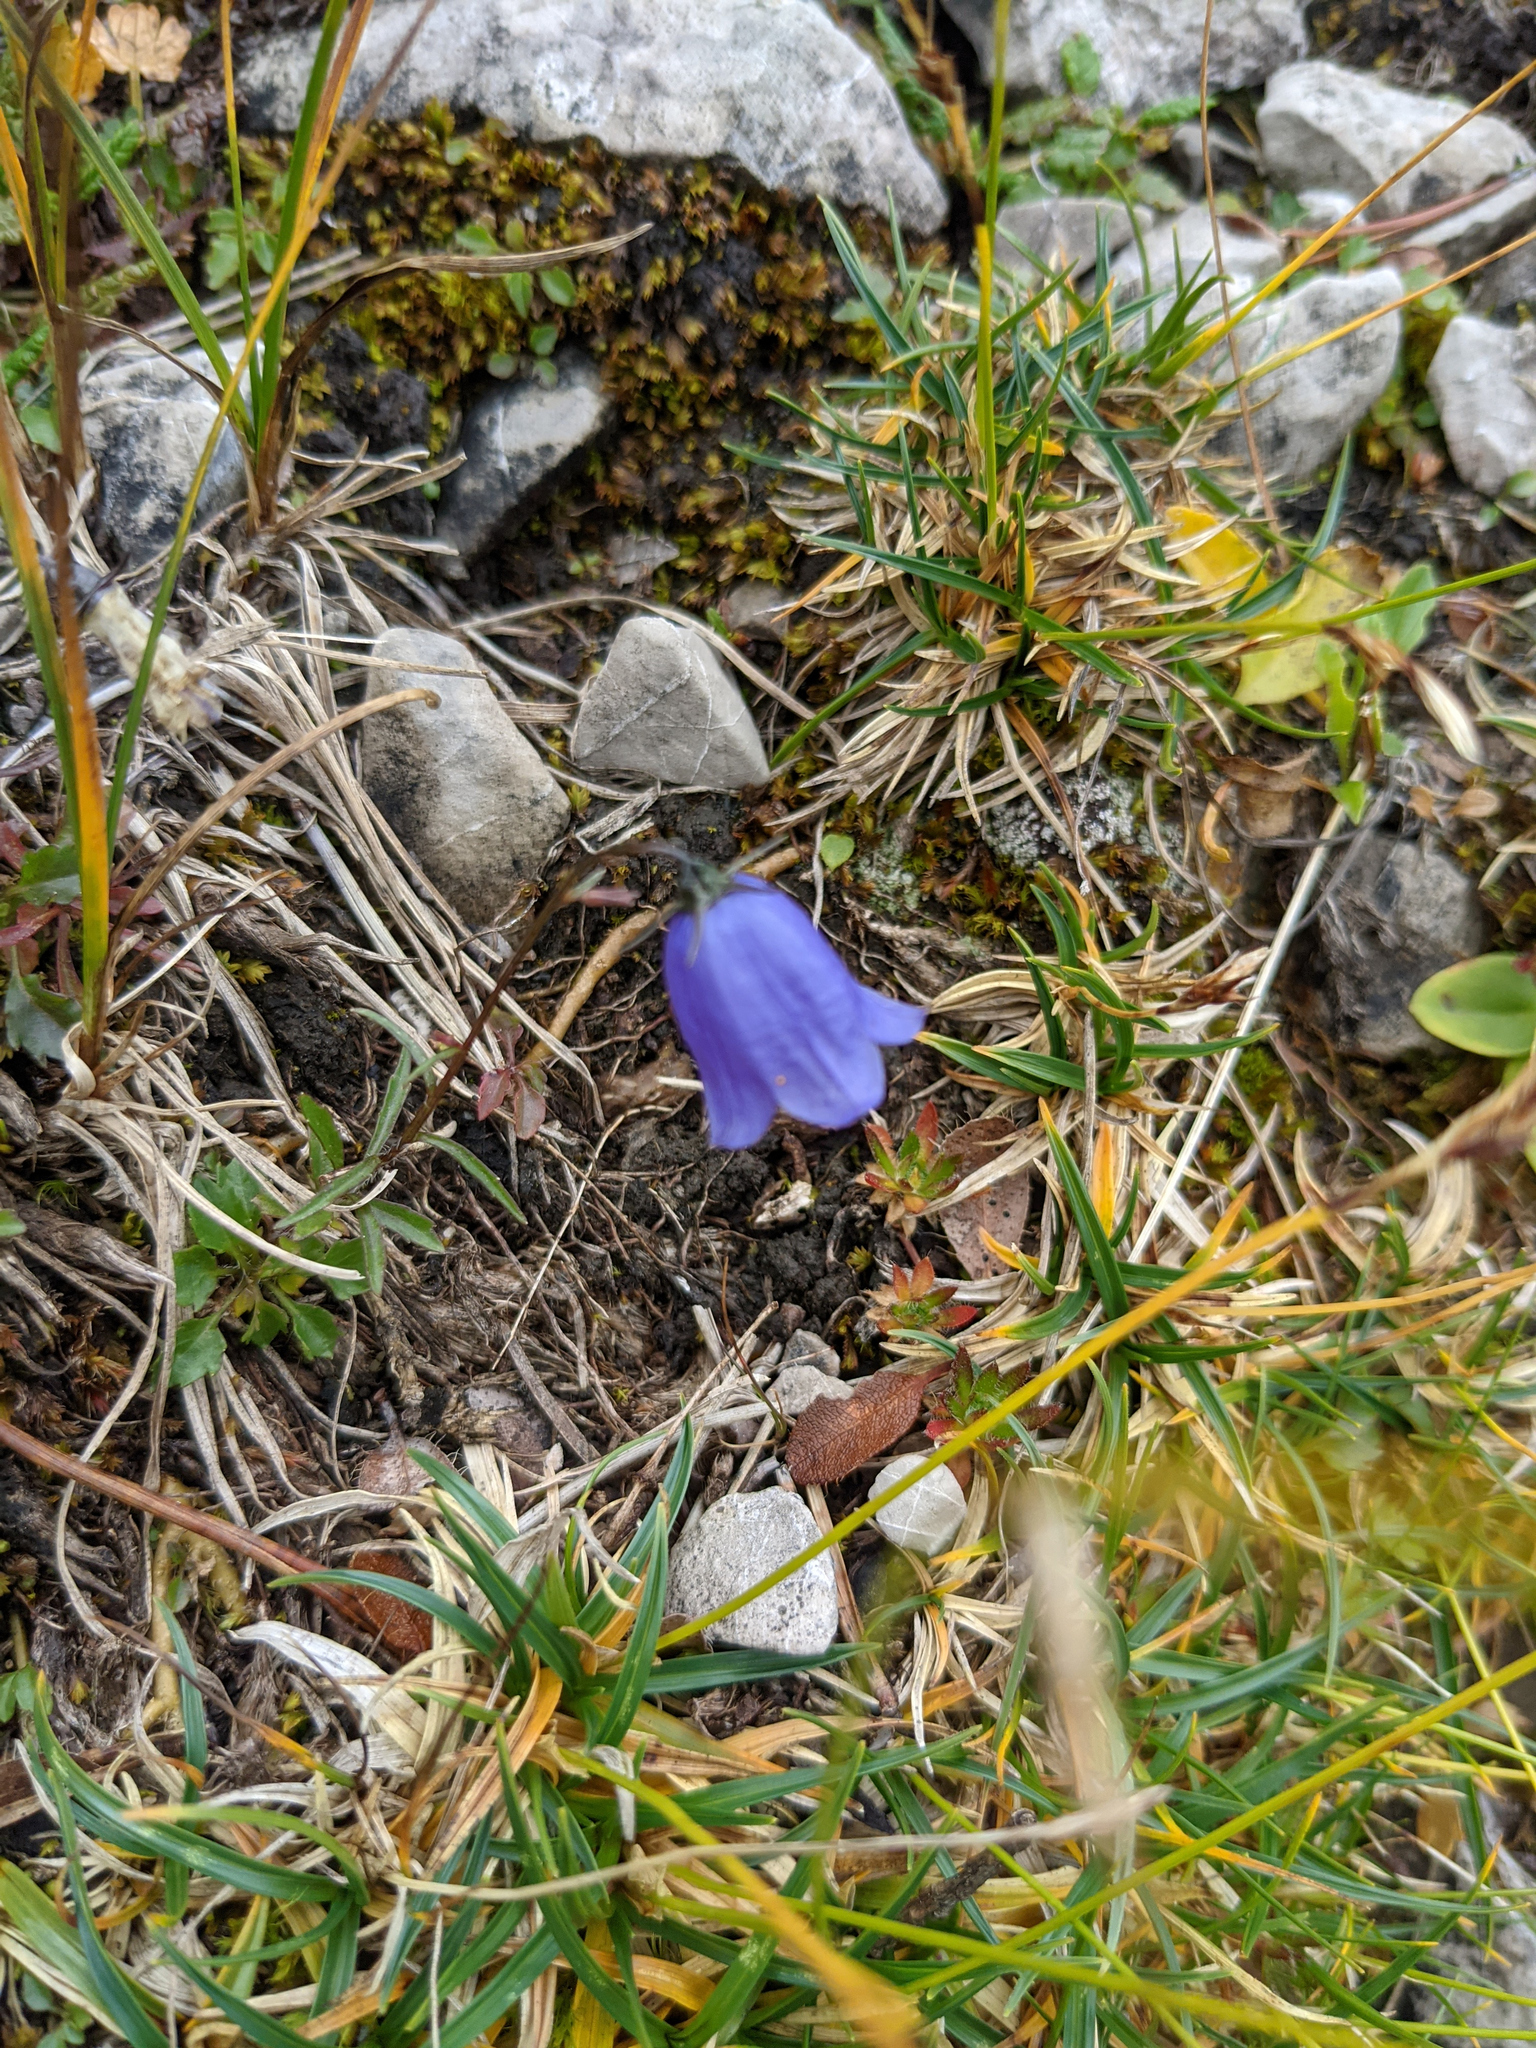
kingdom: Plantae
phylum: Tracheophyta
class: Magnoliopsida
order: Asterales
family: Campanulaceae
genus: Campanula
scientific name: Campanula cochleariifolia
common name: Fairies'-thimbles
